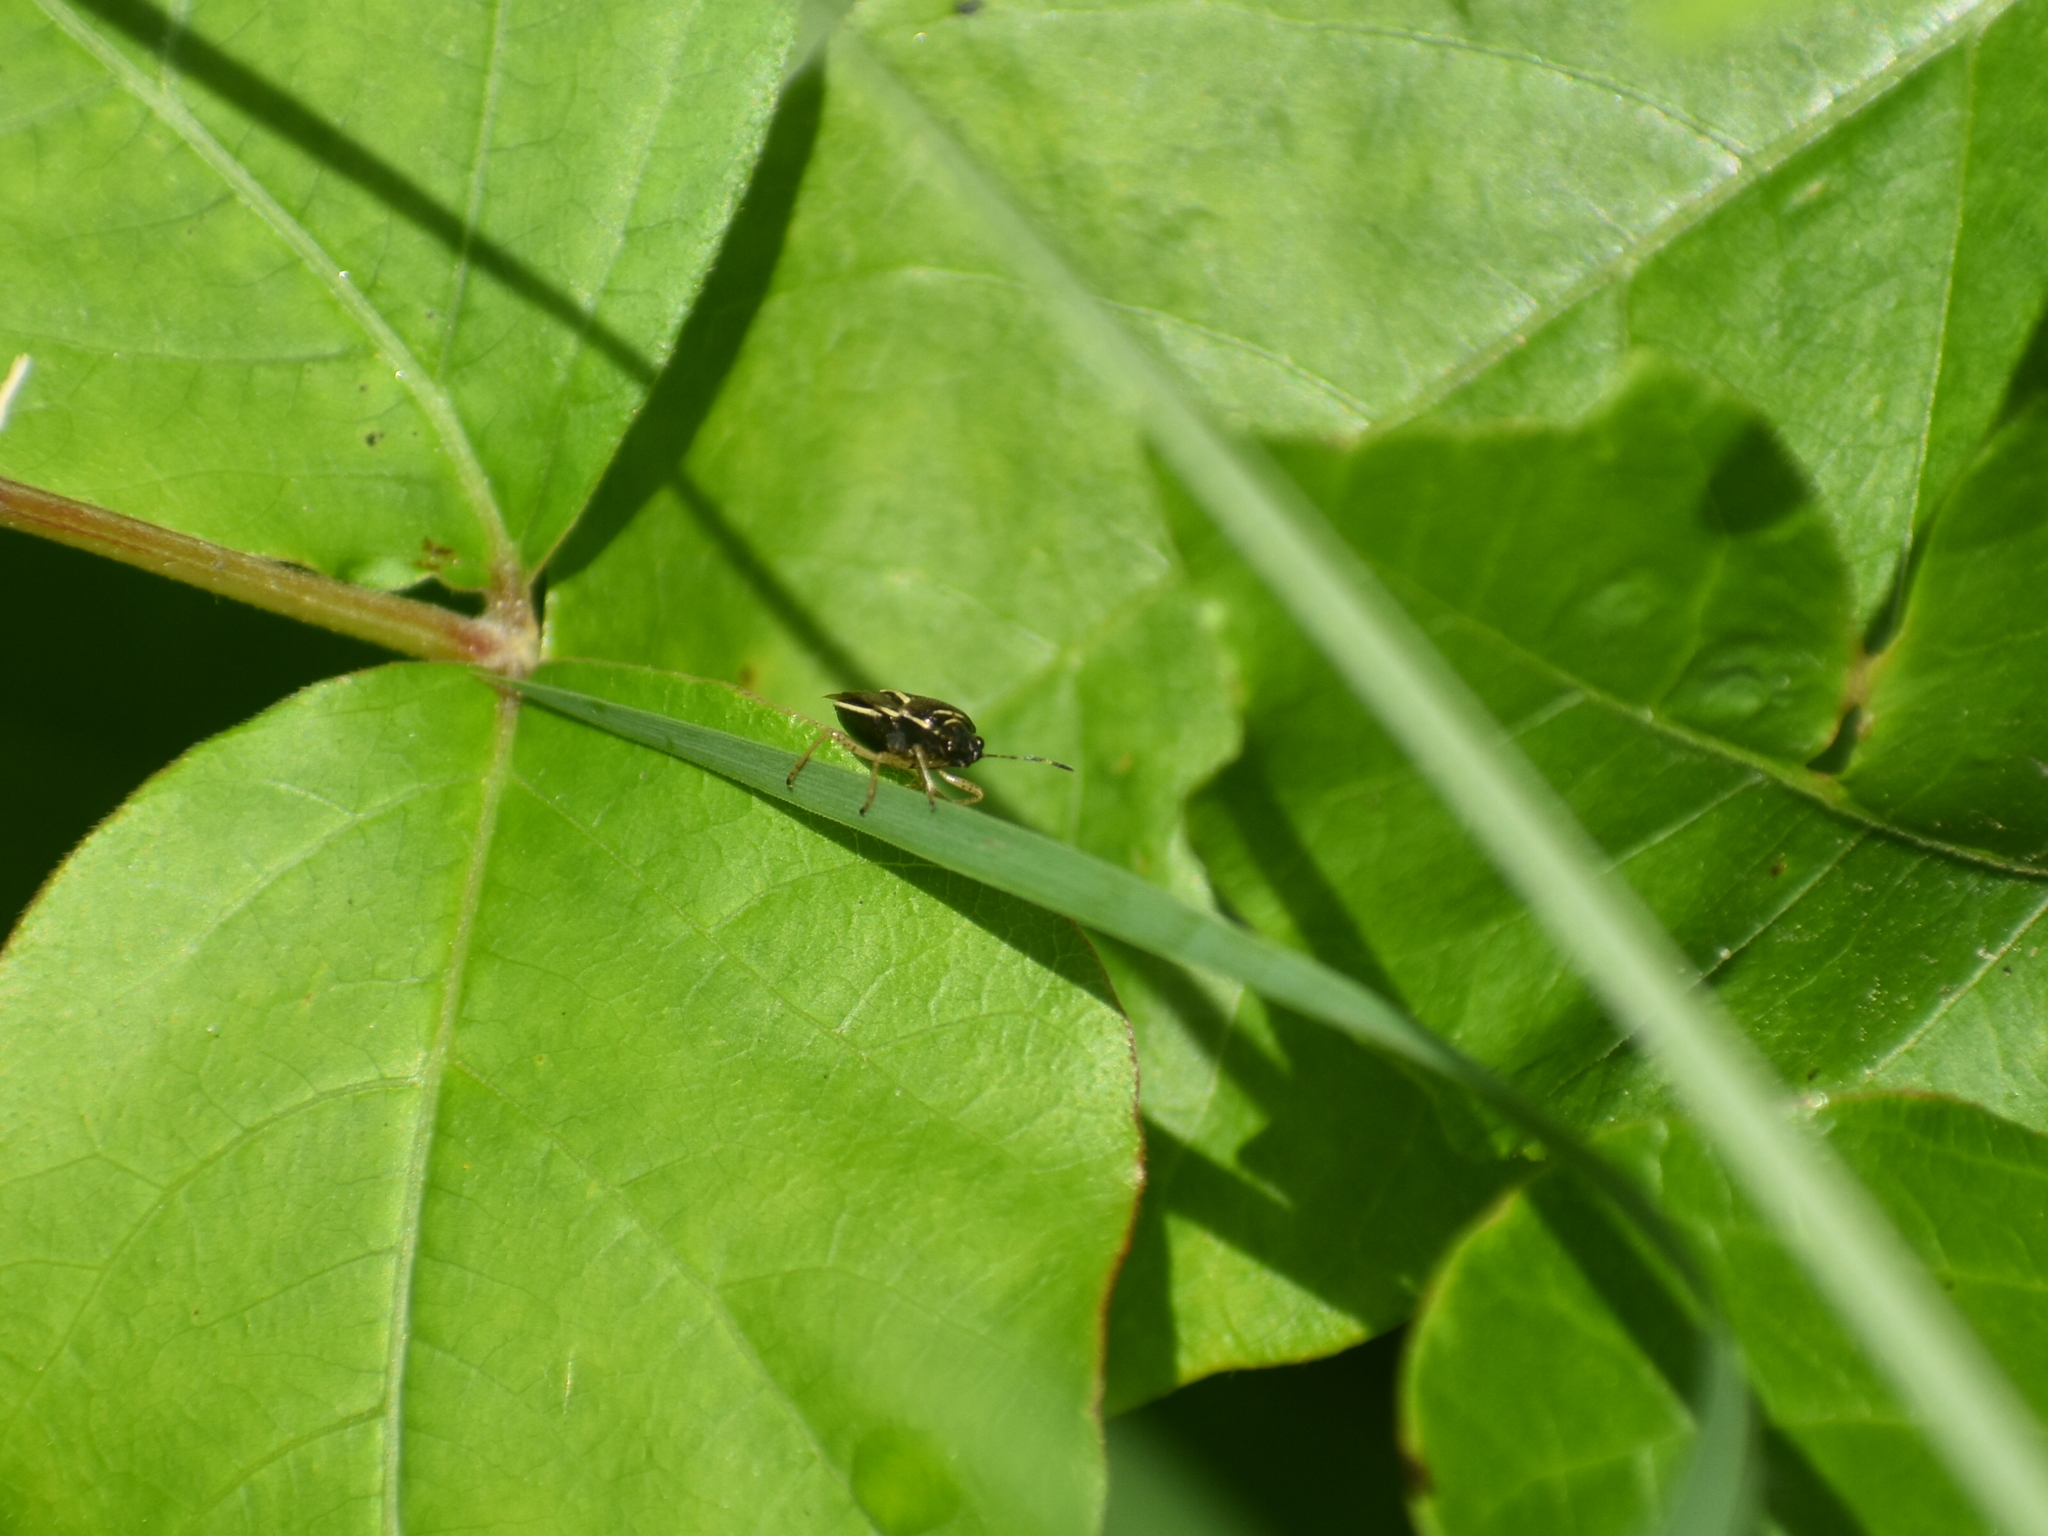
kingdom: Animalia
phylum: Arthropoda
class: Insecta
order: Hemiptera
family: Pentatomidae
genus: Mormidea
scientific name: Mormidea lugens
